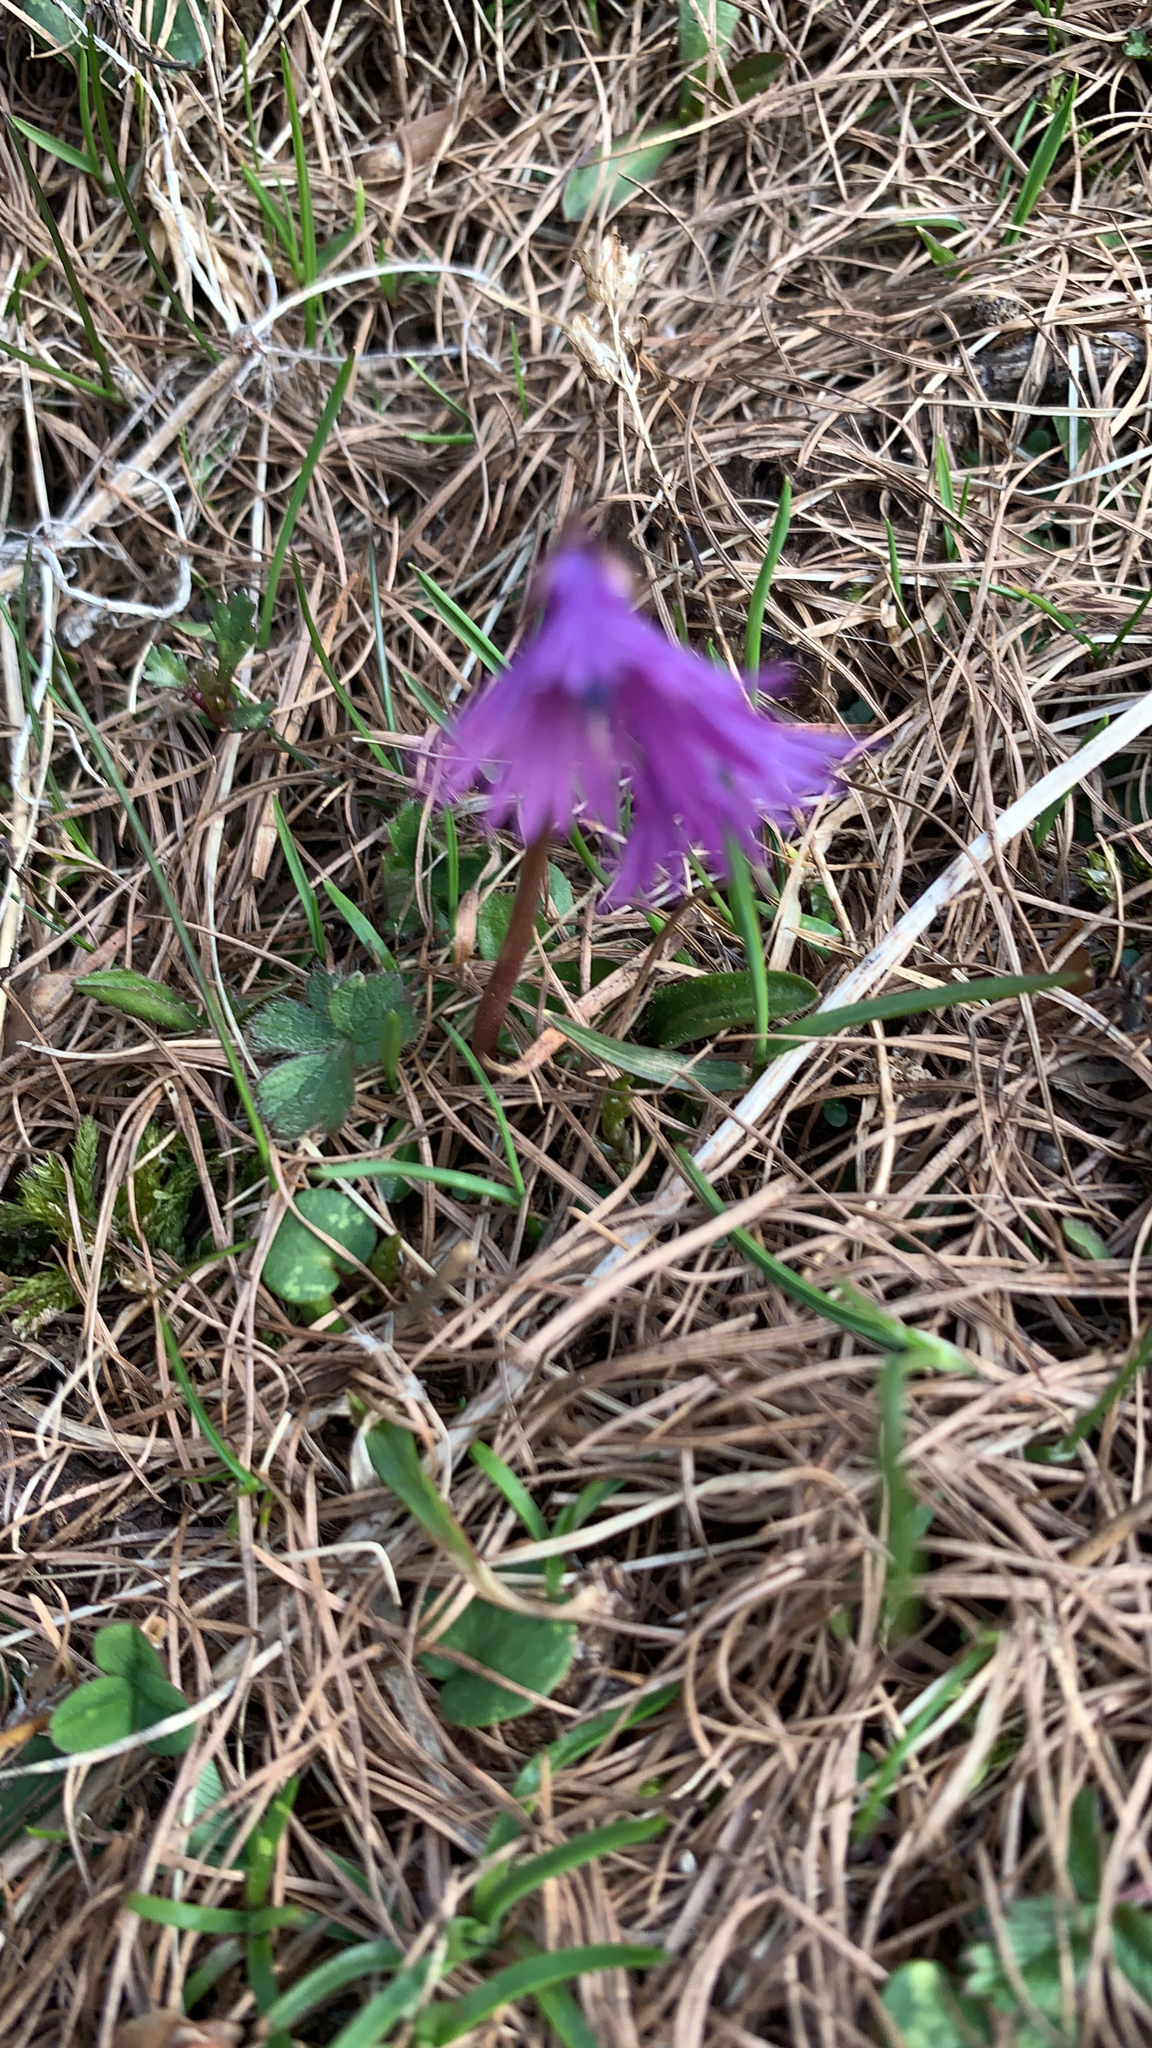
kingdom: Plantae
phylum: Tracheophyta
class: Magnoliopsida
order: Ericales
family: Primulaceae
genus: Soldanella
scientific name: Soldanella alpina
